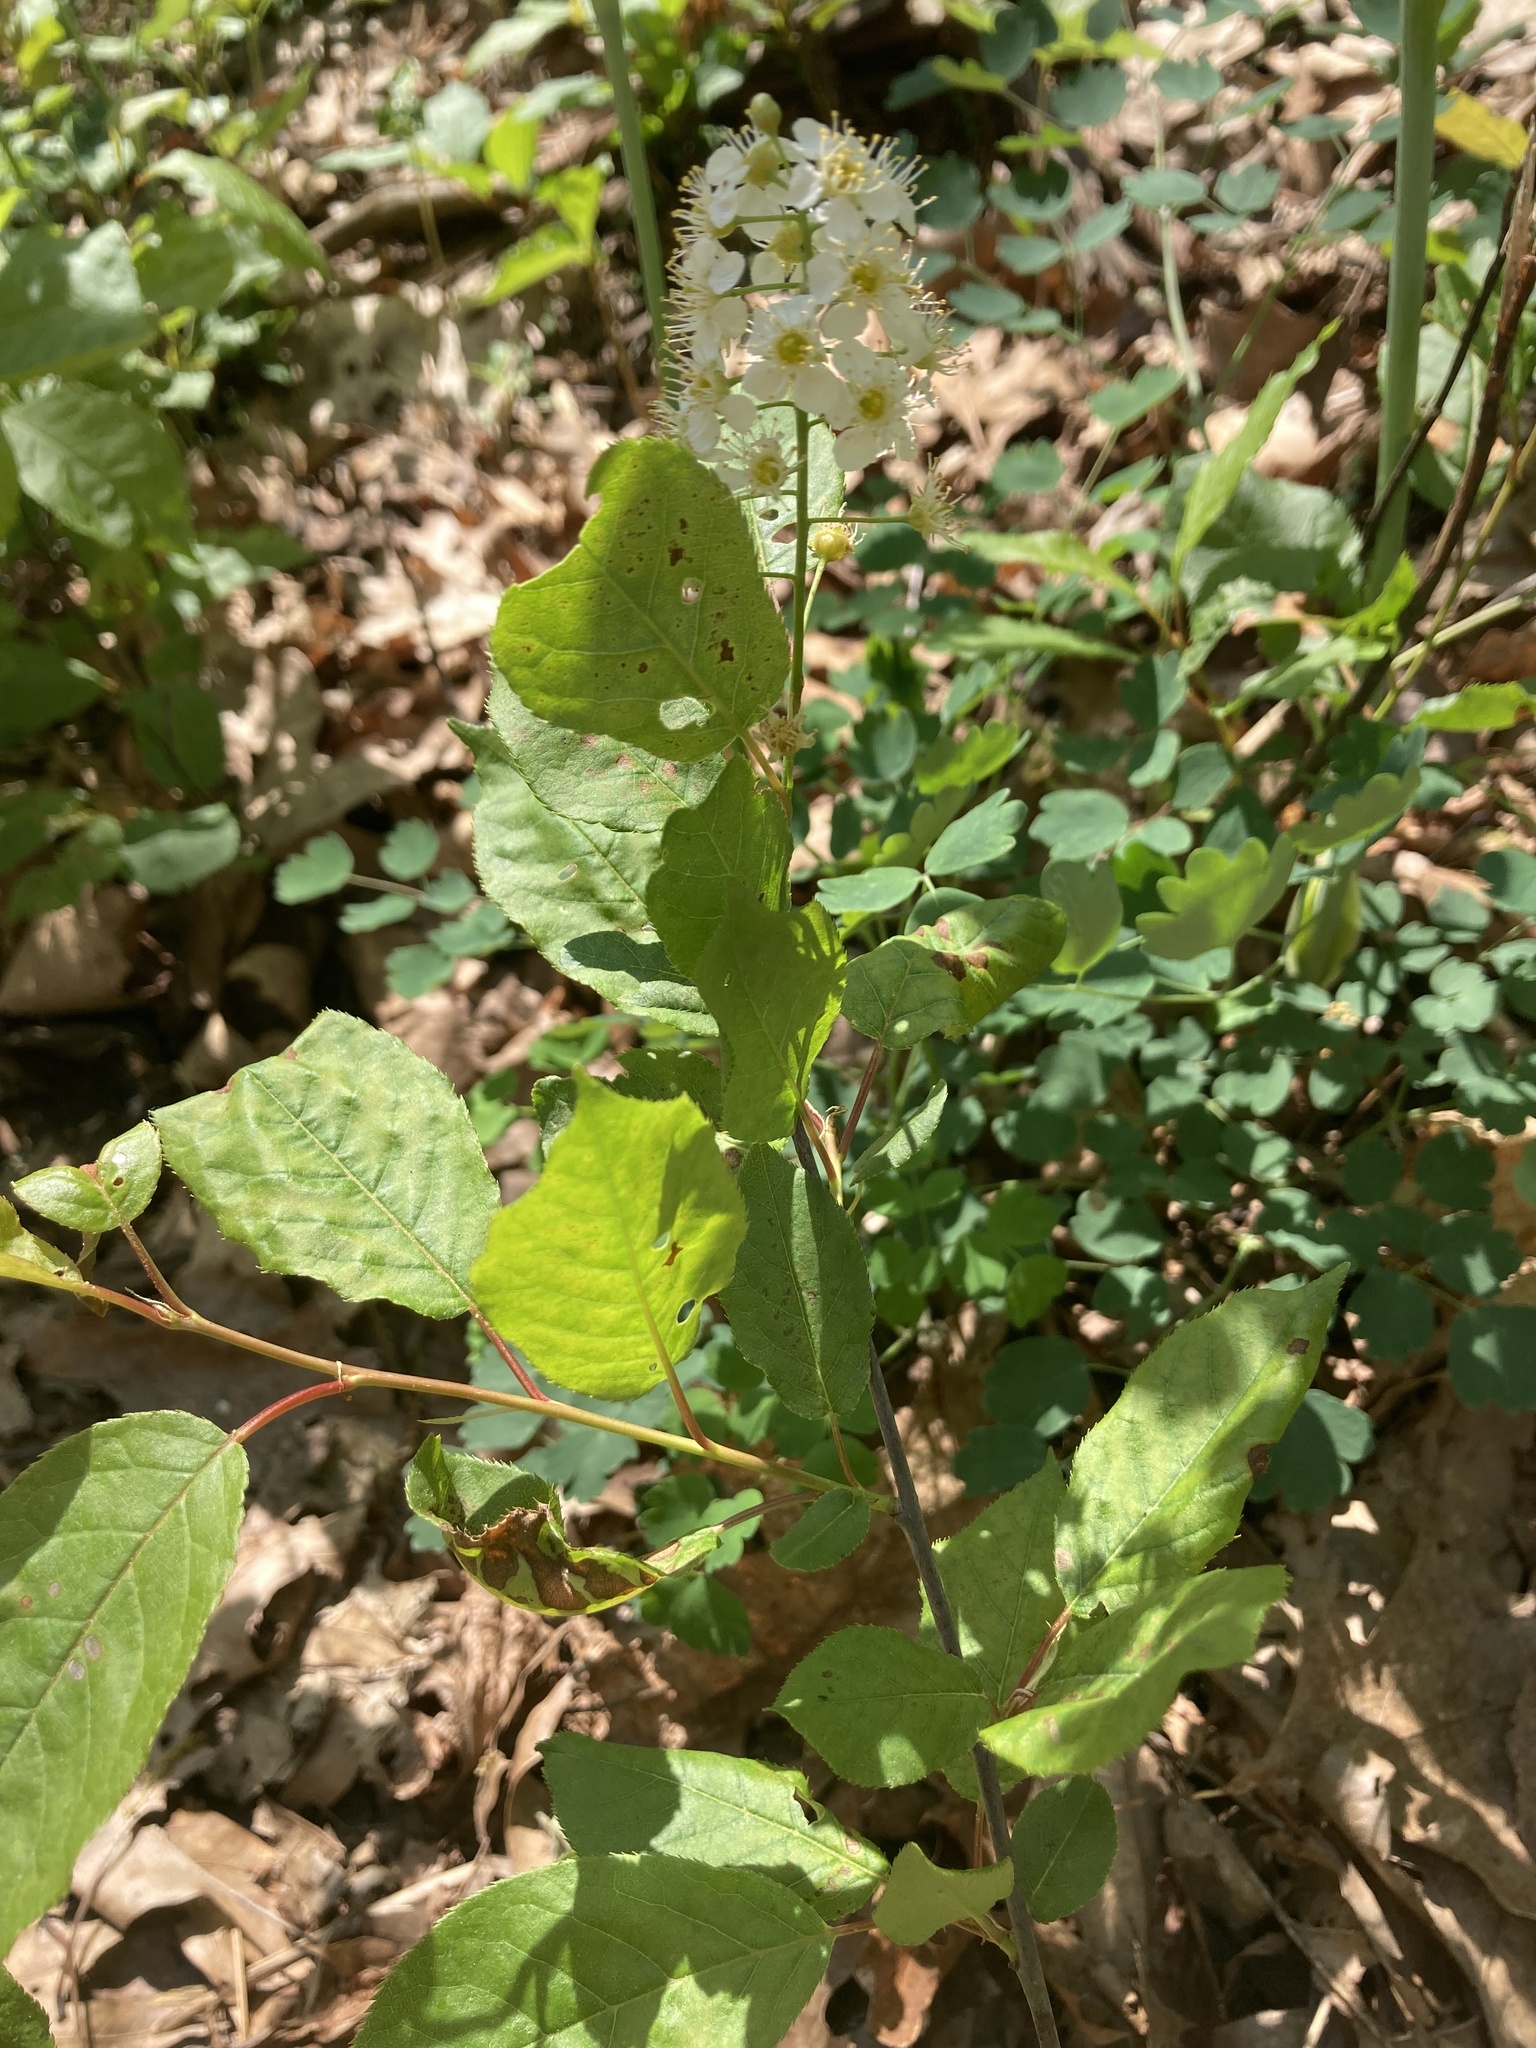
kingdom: Plantae
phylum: Tracheophyta
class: Magnoliopsida
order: Rosales
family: Rosaceae
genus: Prunus
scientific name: Prunus virginiana
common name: Chokecherry
